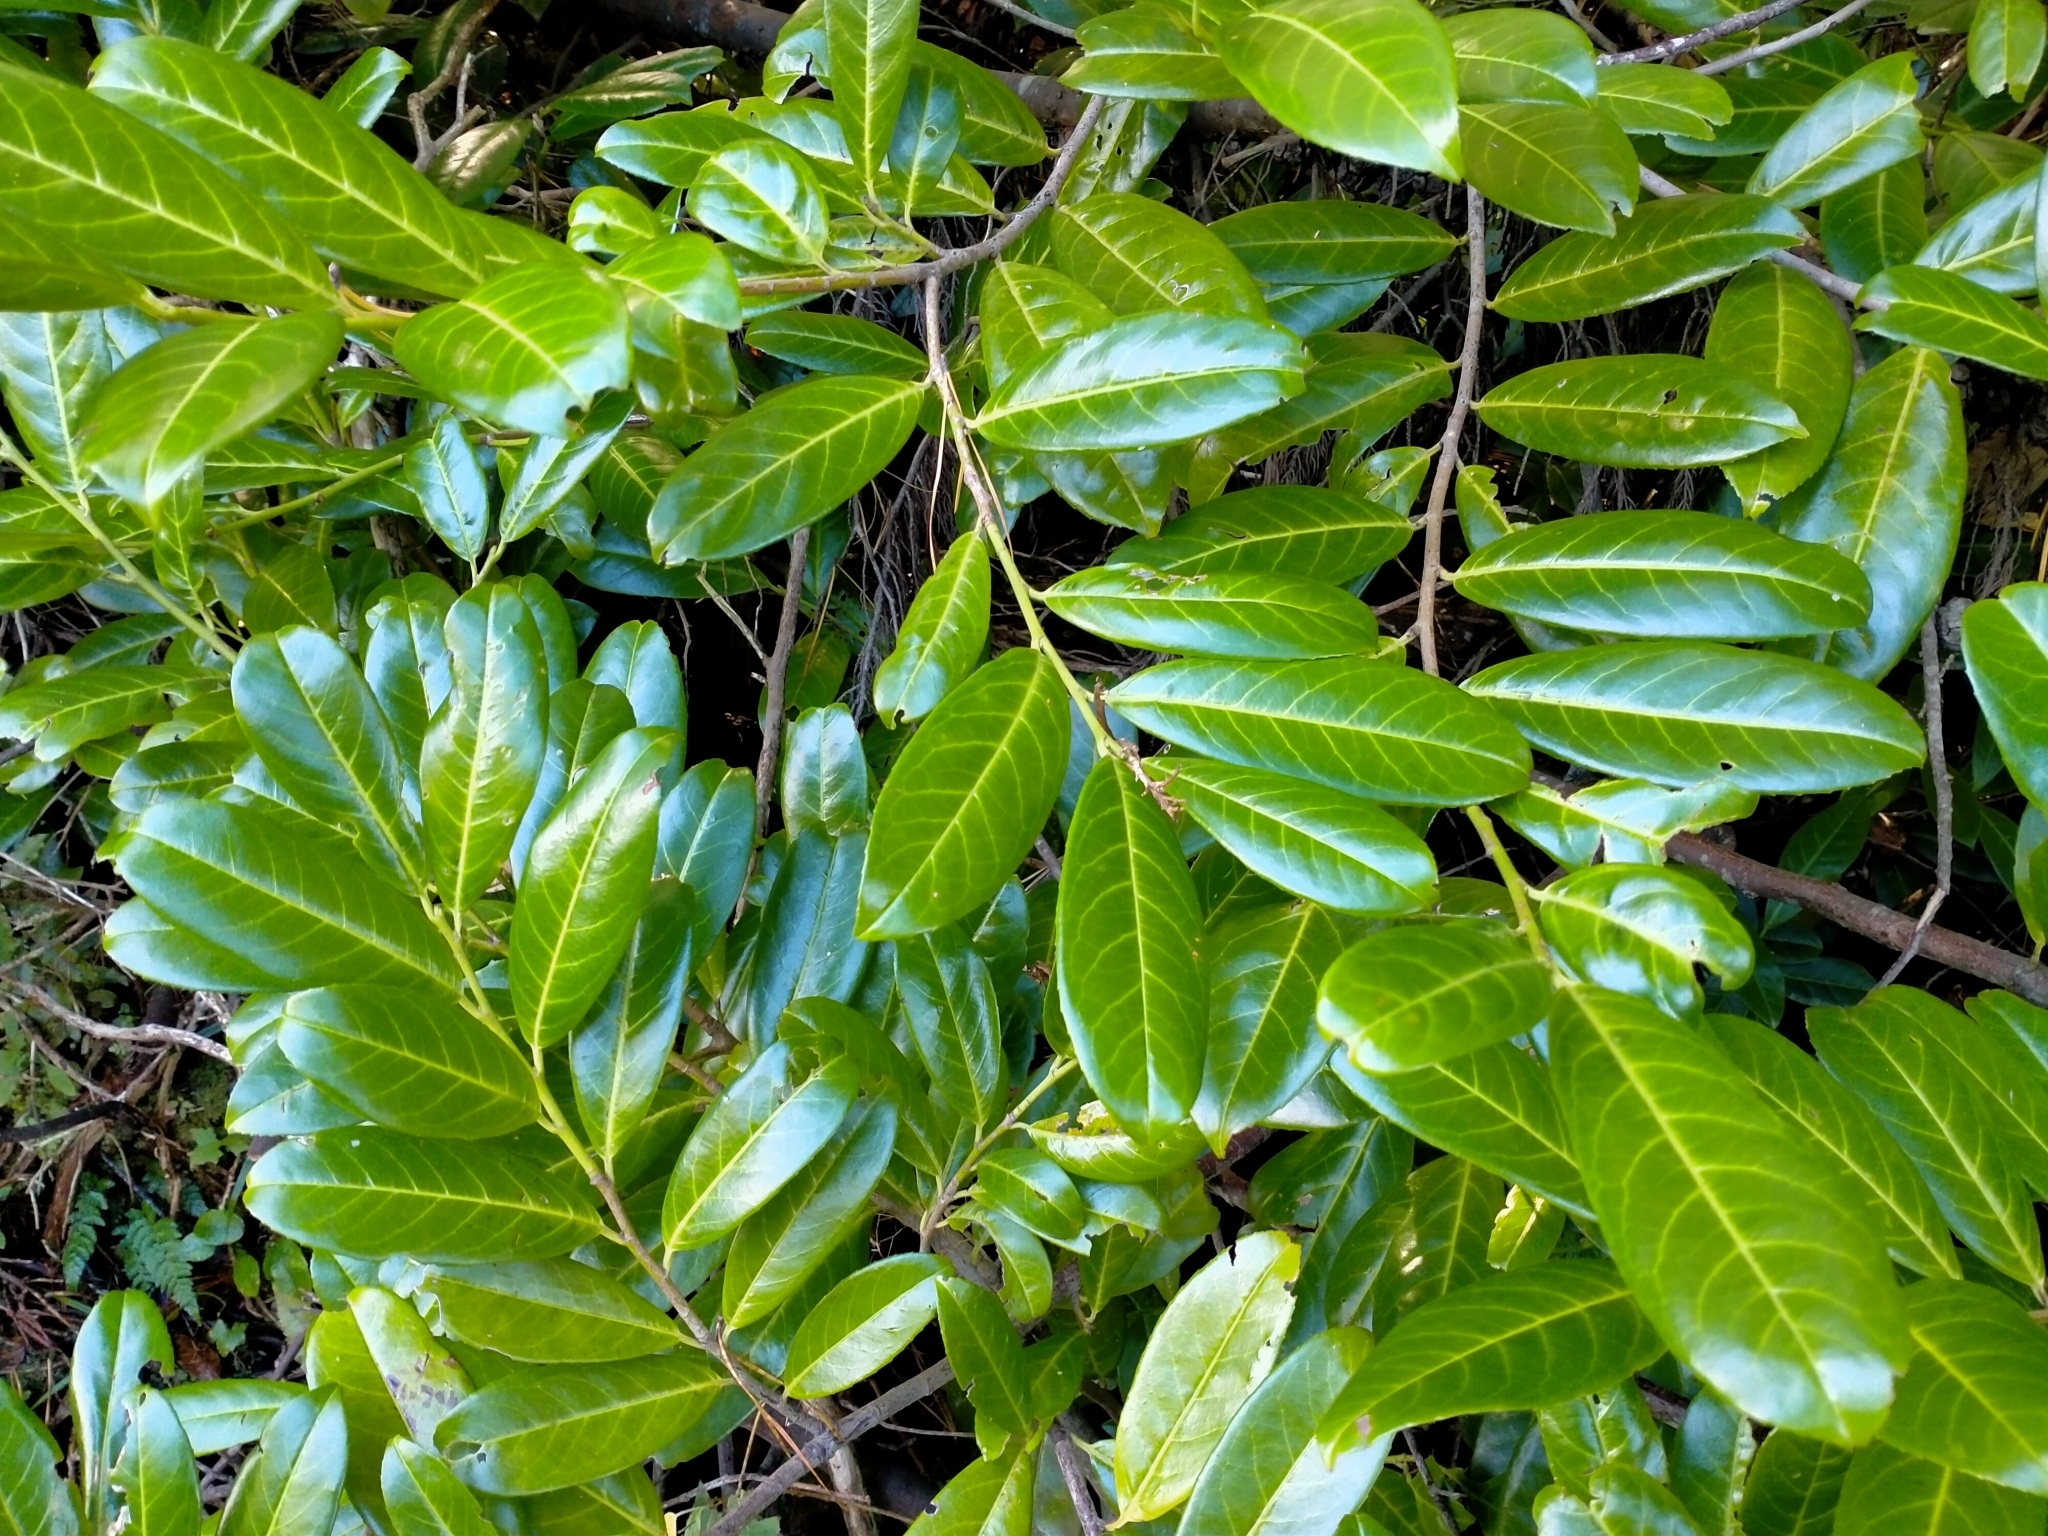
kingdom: Plantae
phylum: Tracheophyta
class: Magnoliopsida
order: Rosales
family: Rosaceae
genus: Prunus
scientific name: Prunus laurocerasus
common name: Cherry laurel
